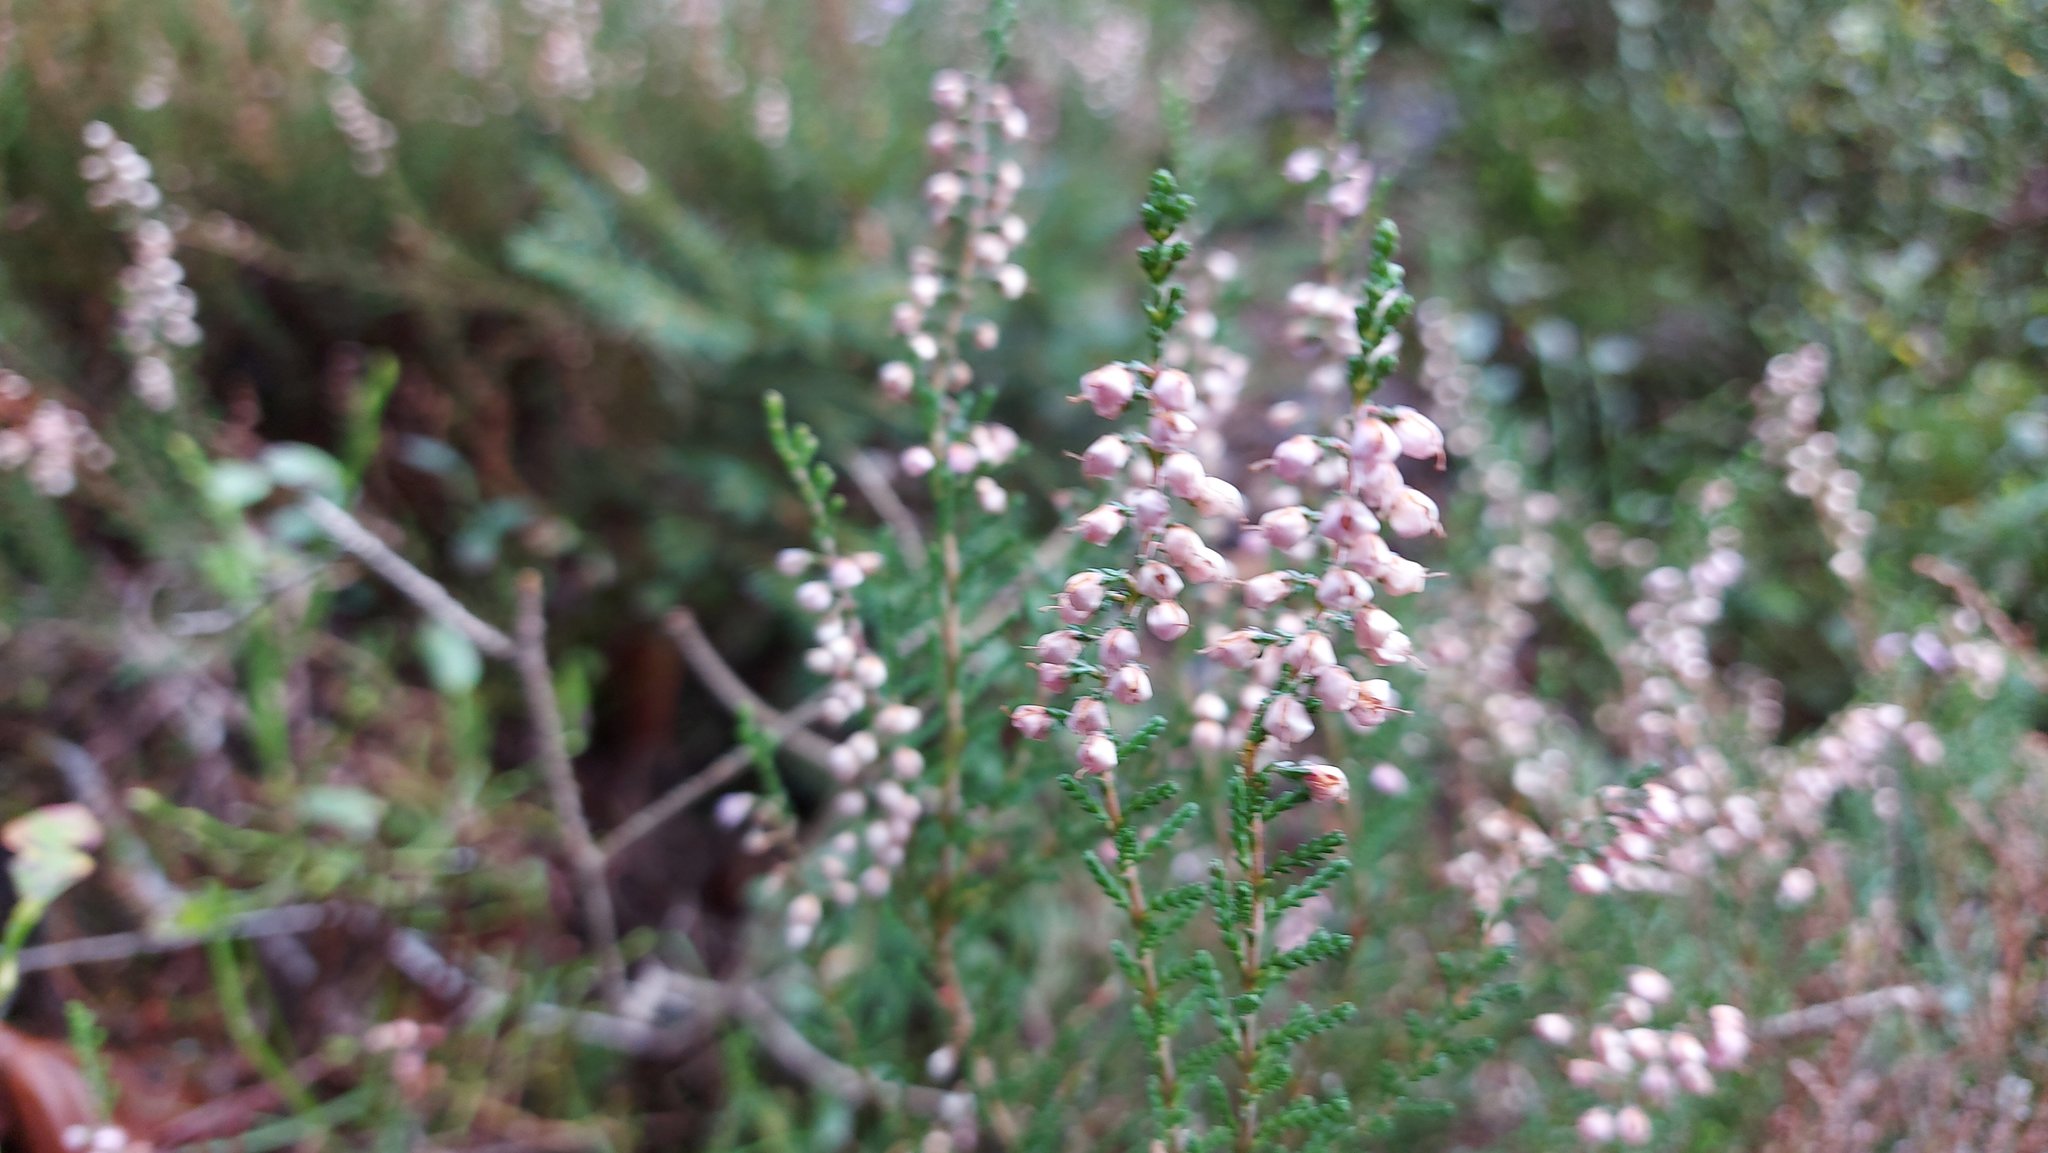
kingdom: Plantae
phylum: Tracheophyta
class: Magnoliopsida
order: Ericales
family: Ericaceae
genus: Calluna
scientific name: Calluna vulgaris
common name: Heather
